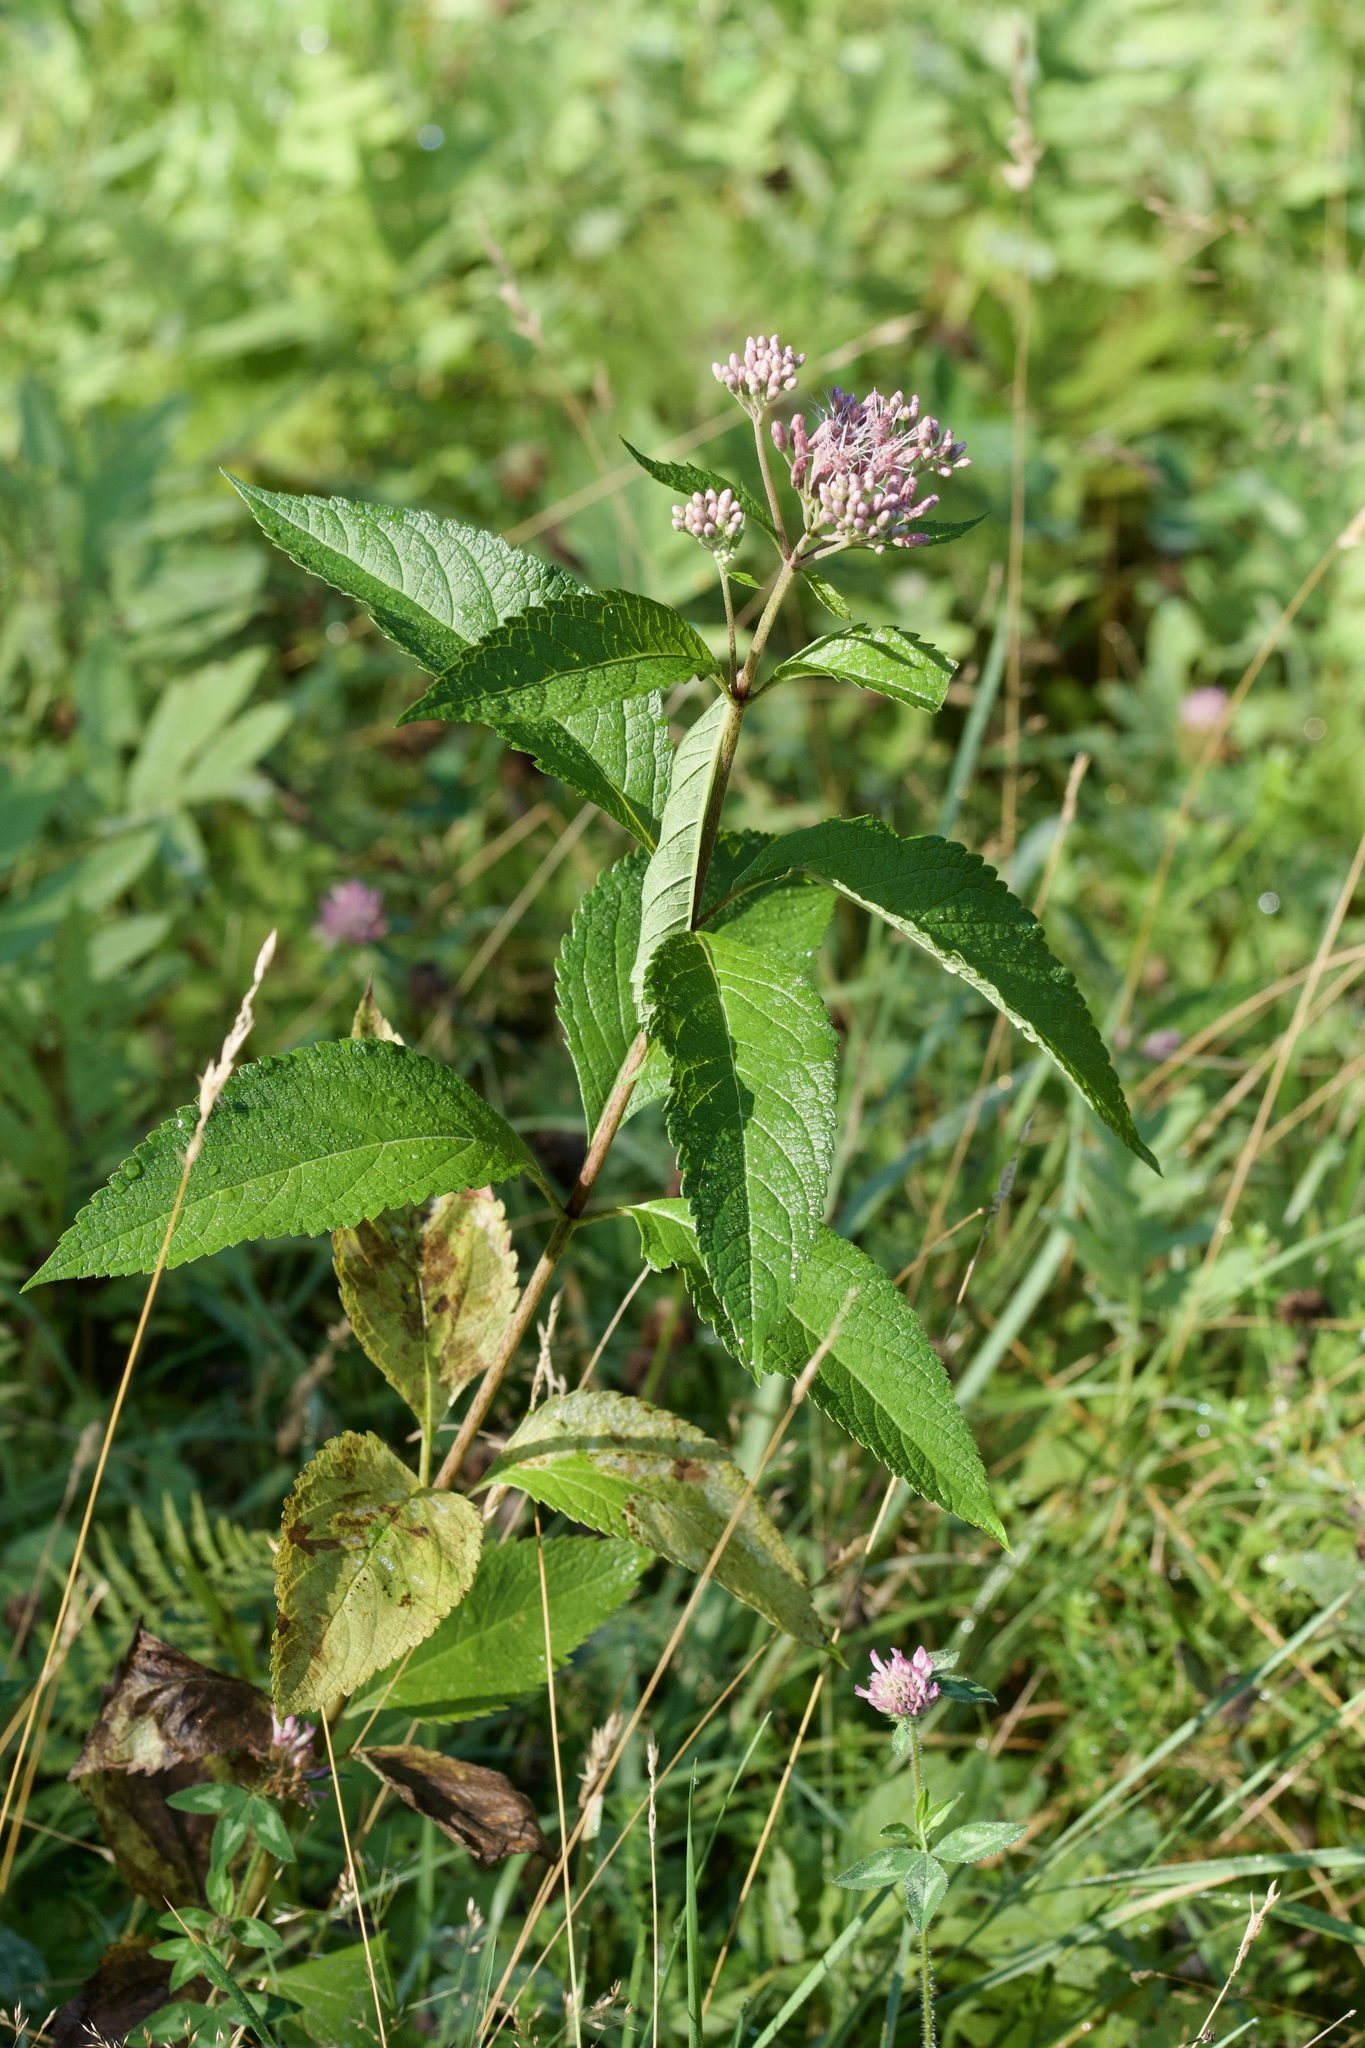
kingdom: Plantae
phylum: Tracheophyta
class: Magnoliopsida
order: Asterales
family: Asteraceae
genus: Eutrochium
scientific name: Eutrochium maculatum
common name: Spotted joe pye weed
